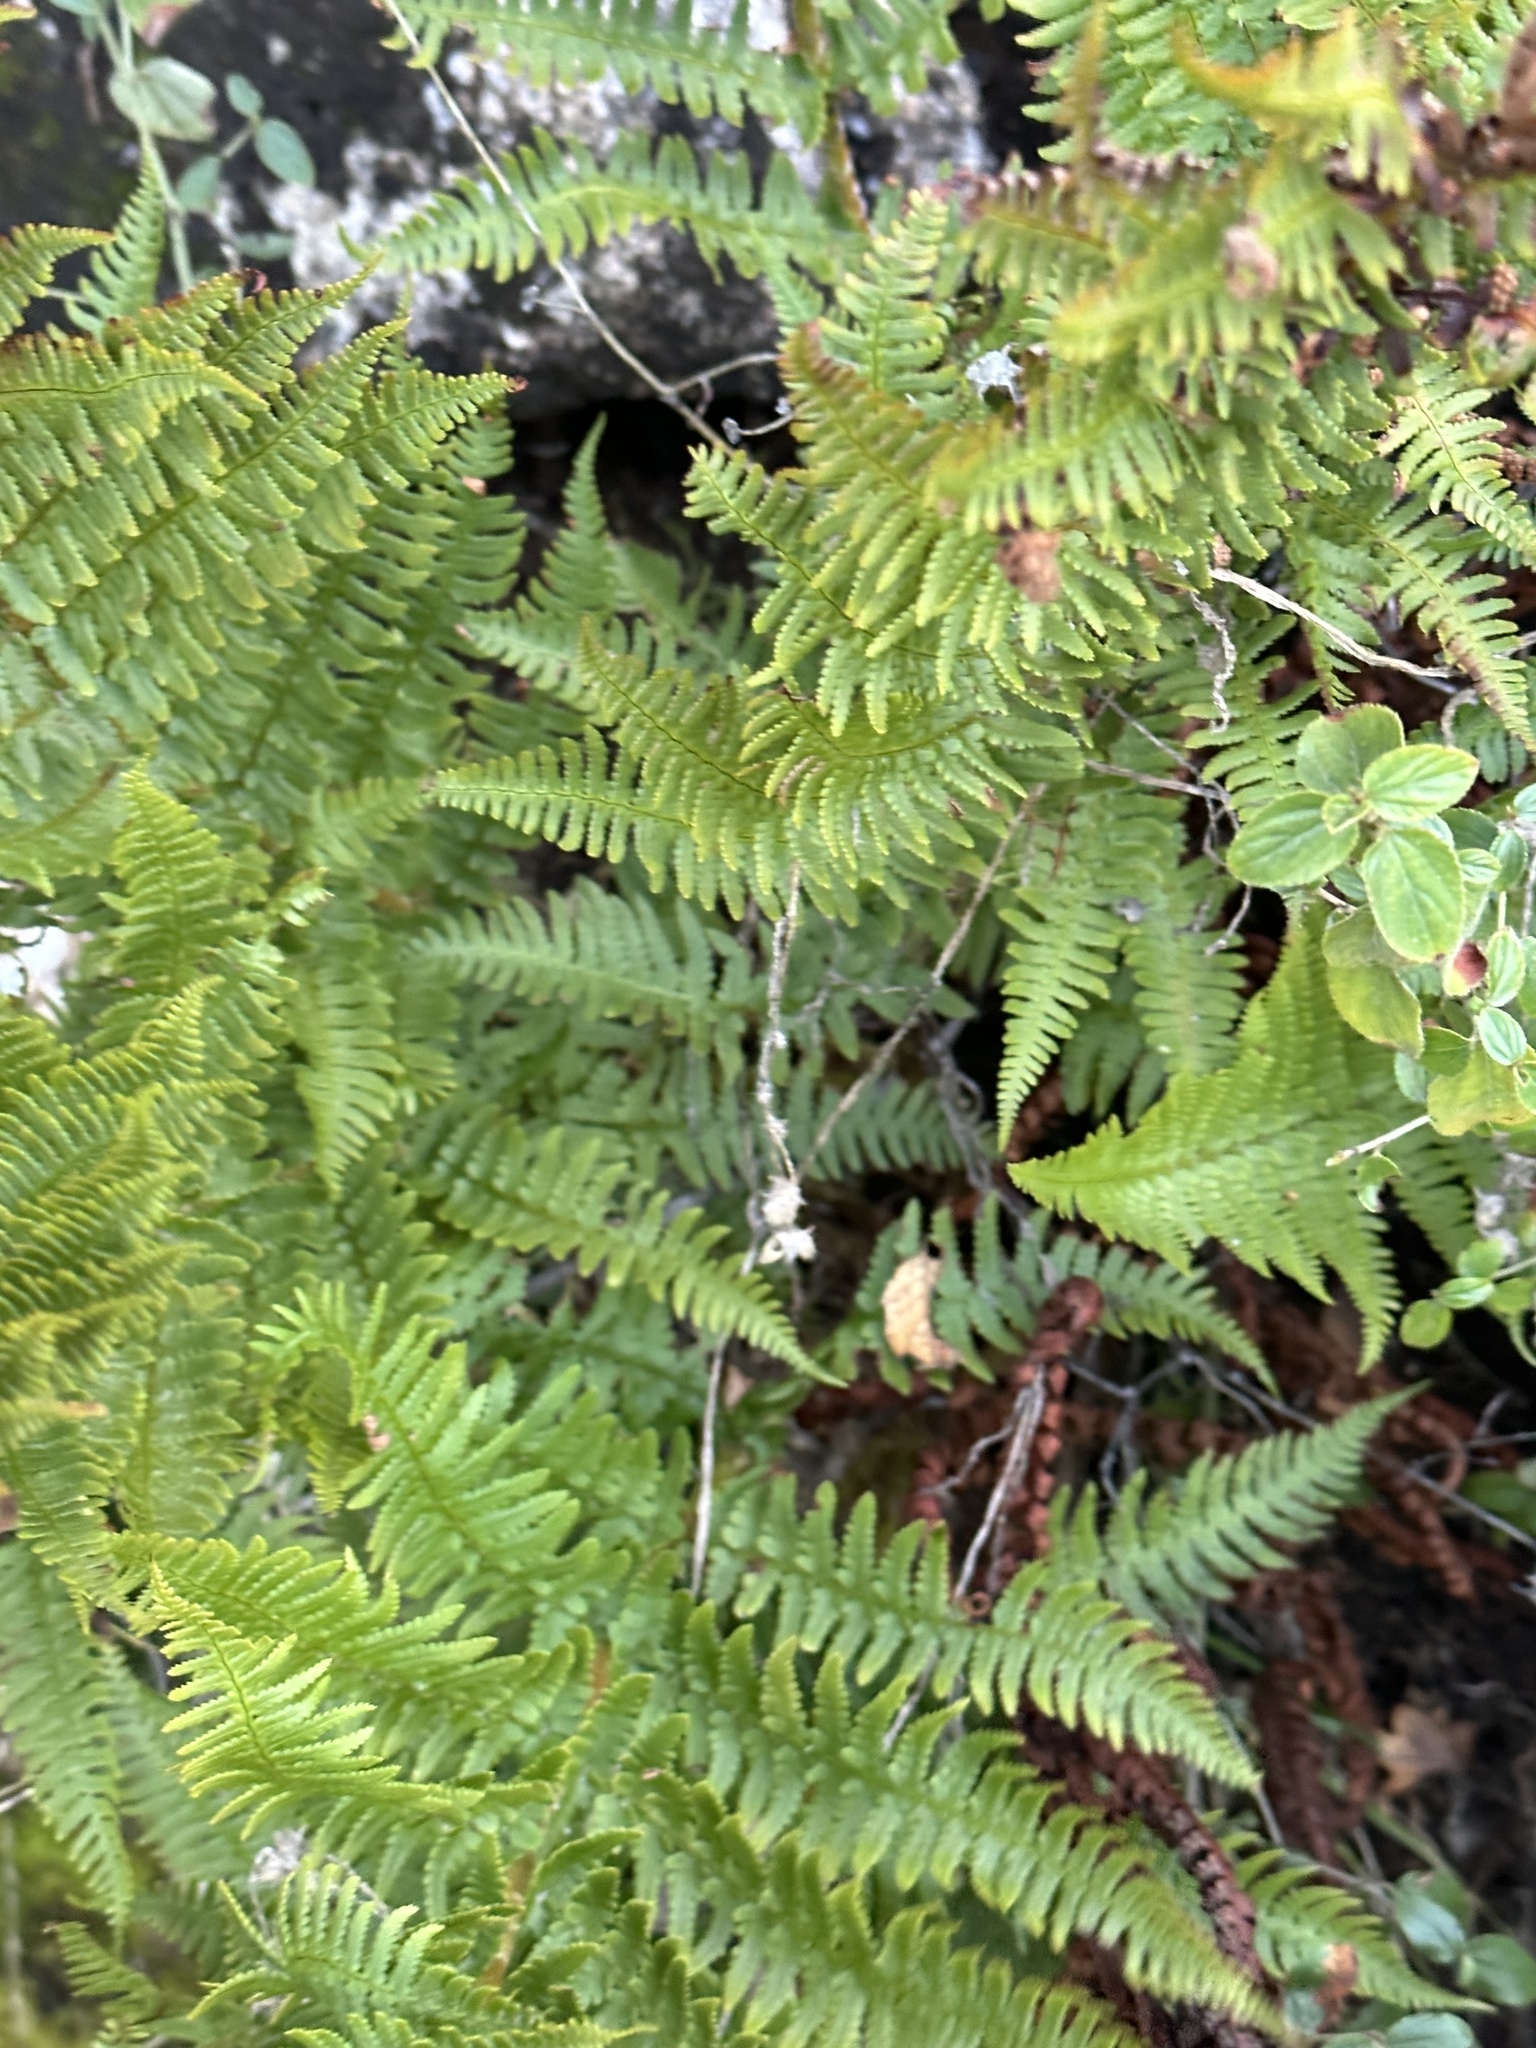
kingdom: Plantae
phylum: Tracheophyta
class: Polypodiopsida
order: Polypodiales
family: Dryopteridaceae
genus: Dryopteris
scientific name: Dryopteris arguta
